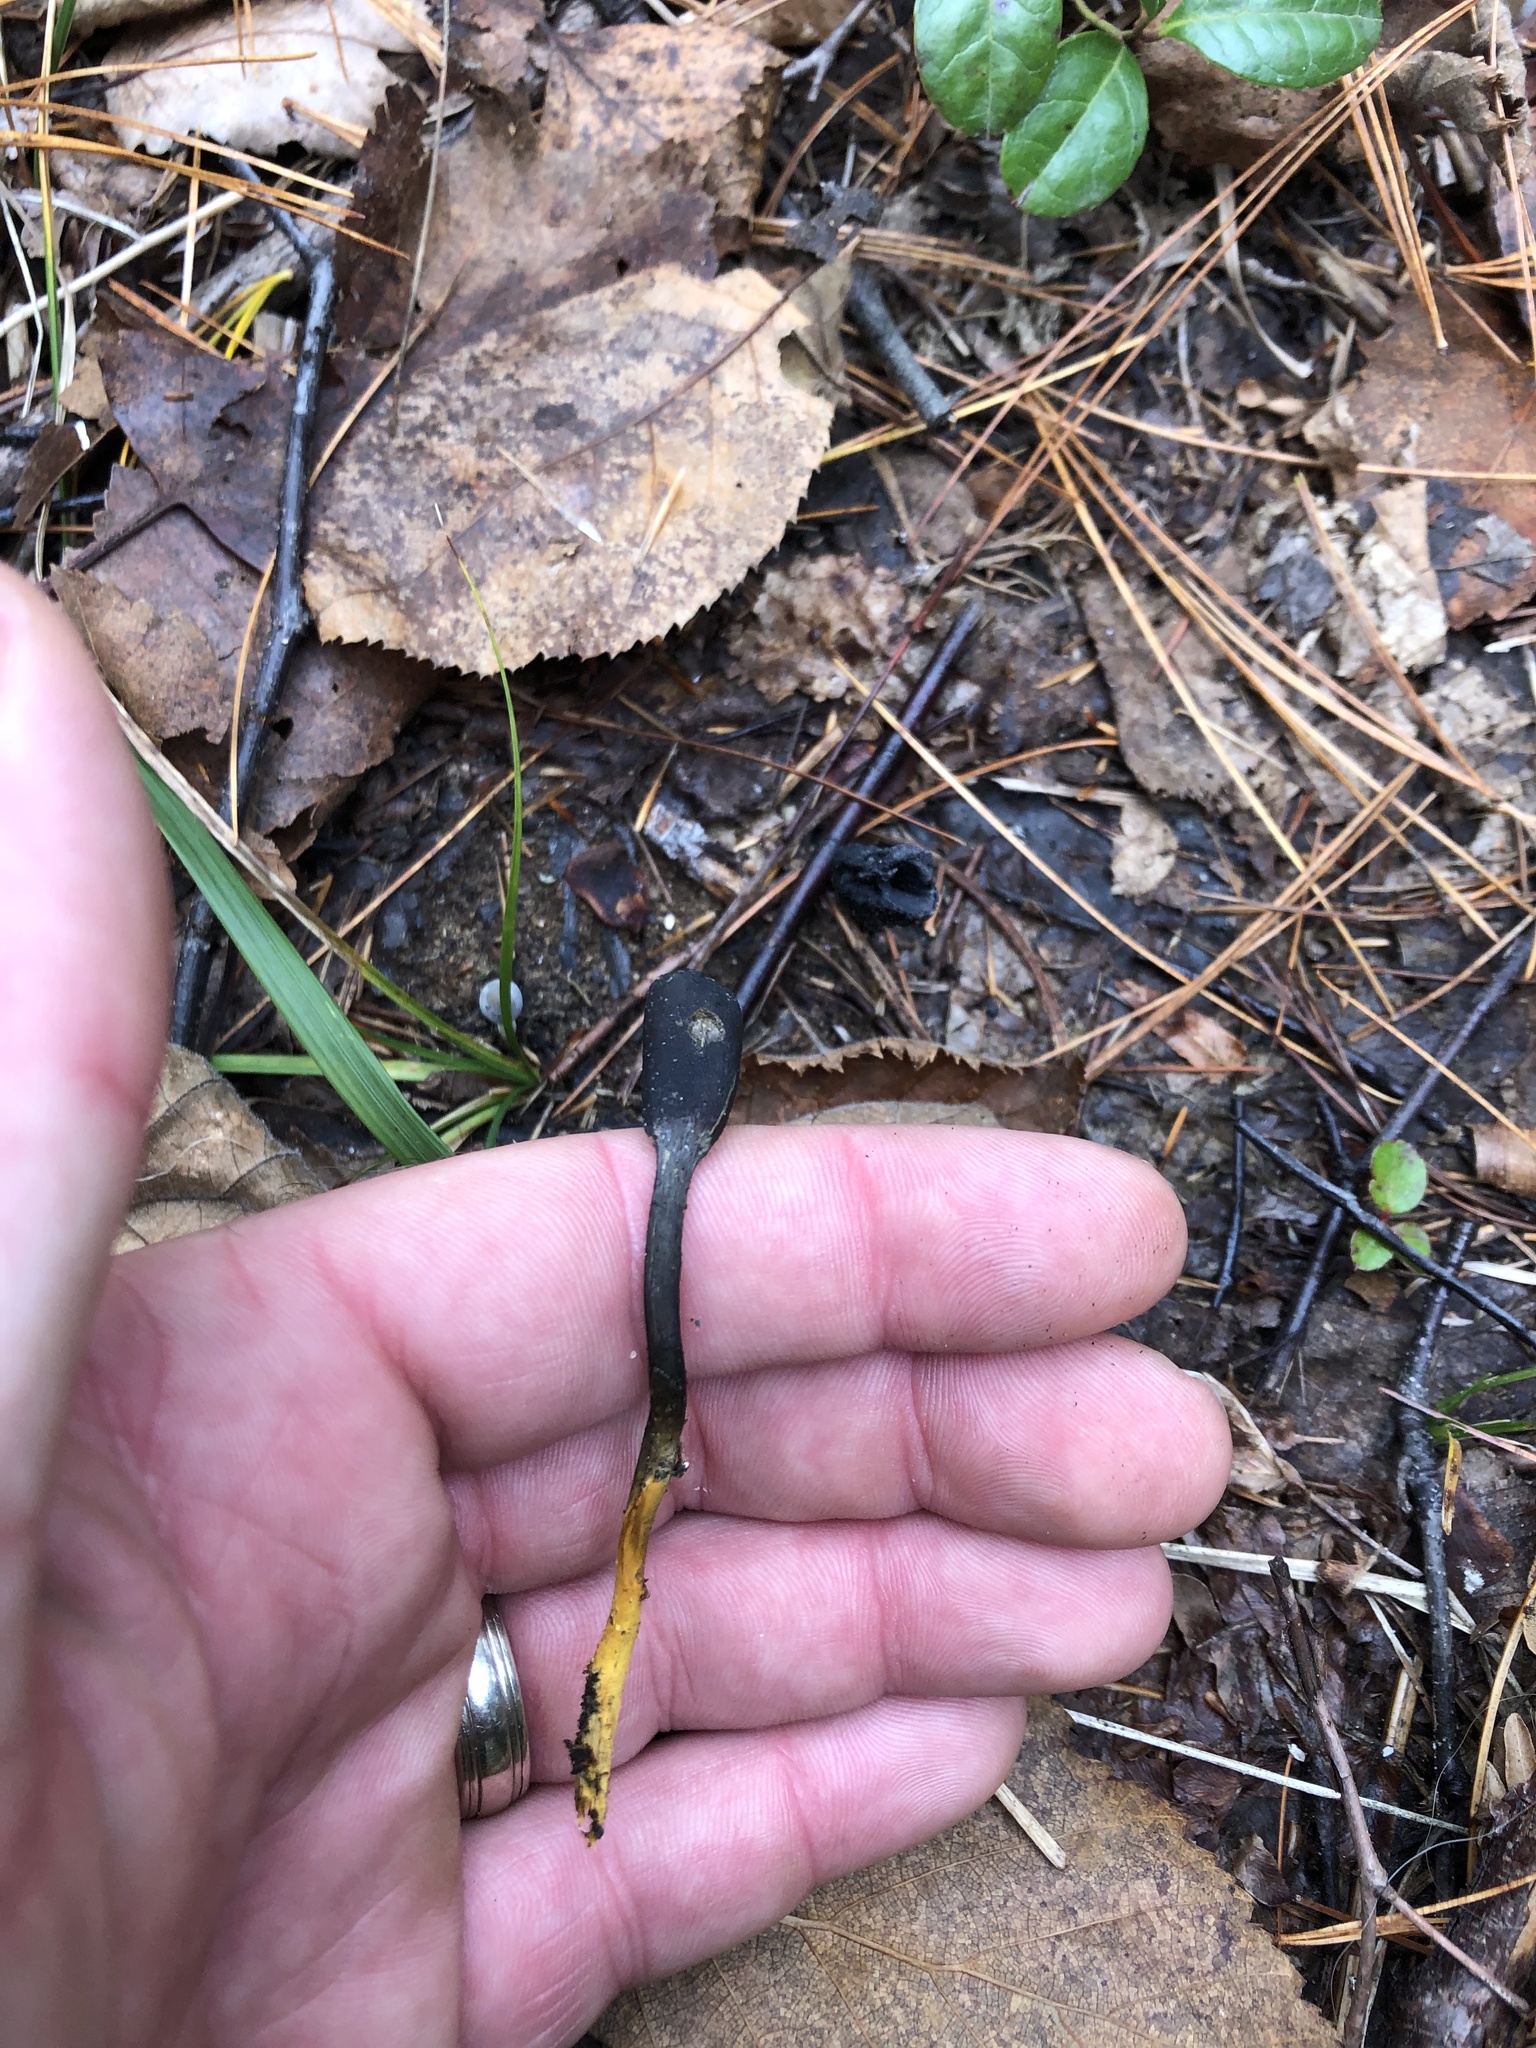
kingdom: Fungi
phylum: Ascomycota
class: Sordariomycetes
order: Hypocreales
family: Ophiocordycipitaceae
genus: Tolypocladium
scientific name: Tolypocladium ophioglossoides
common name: Snaketongue truffleclub
